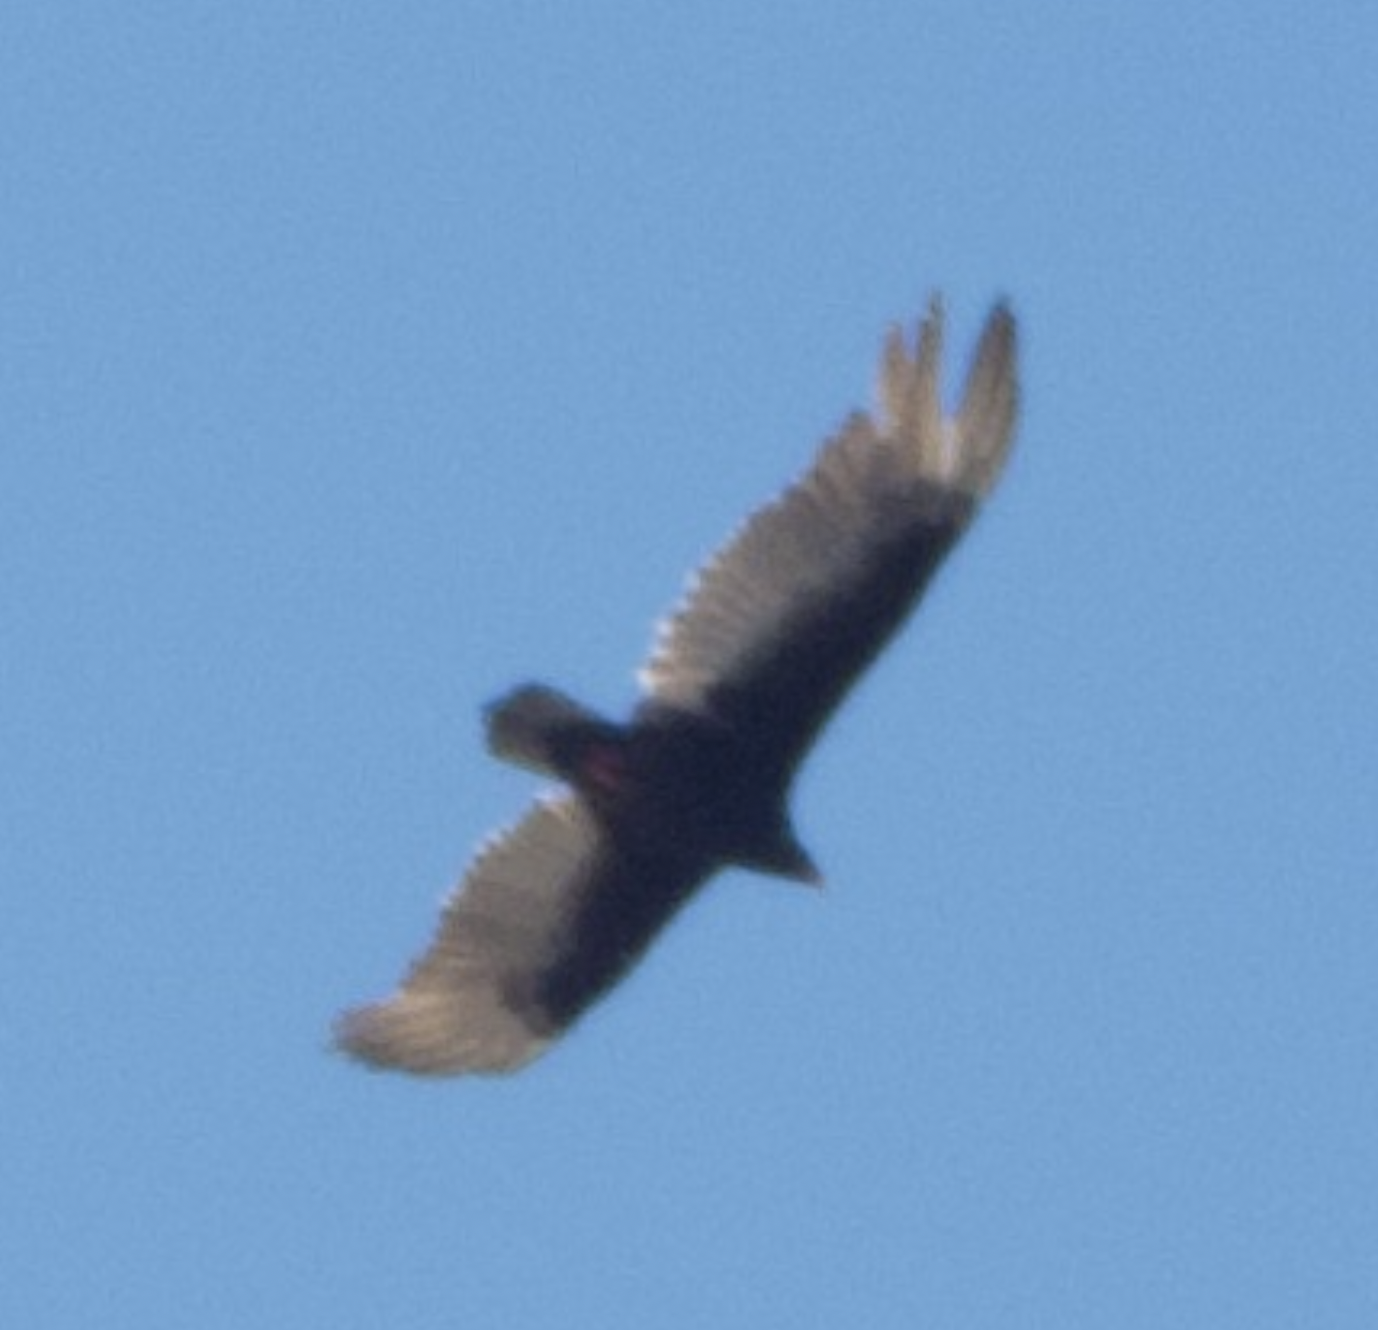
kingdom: Animalia
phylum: Chordata
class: Aves
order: Accipitriformes
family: Cathartidae
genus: Cathartes
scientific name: Cathartes aura
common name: Turkey vulture
